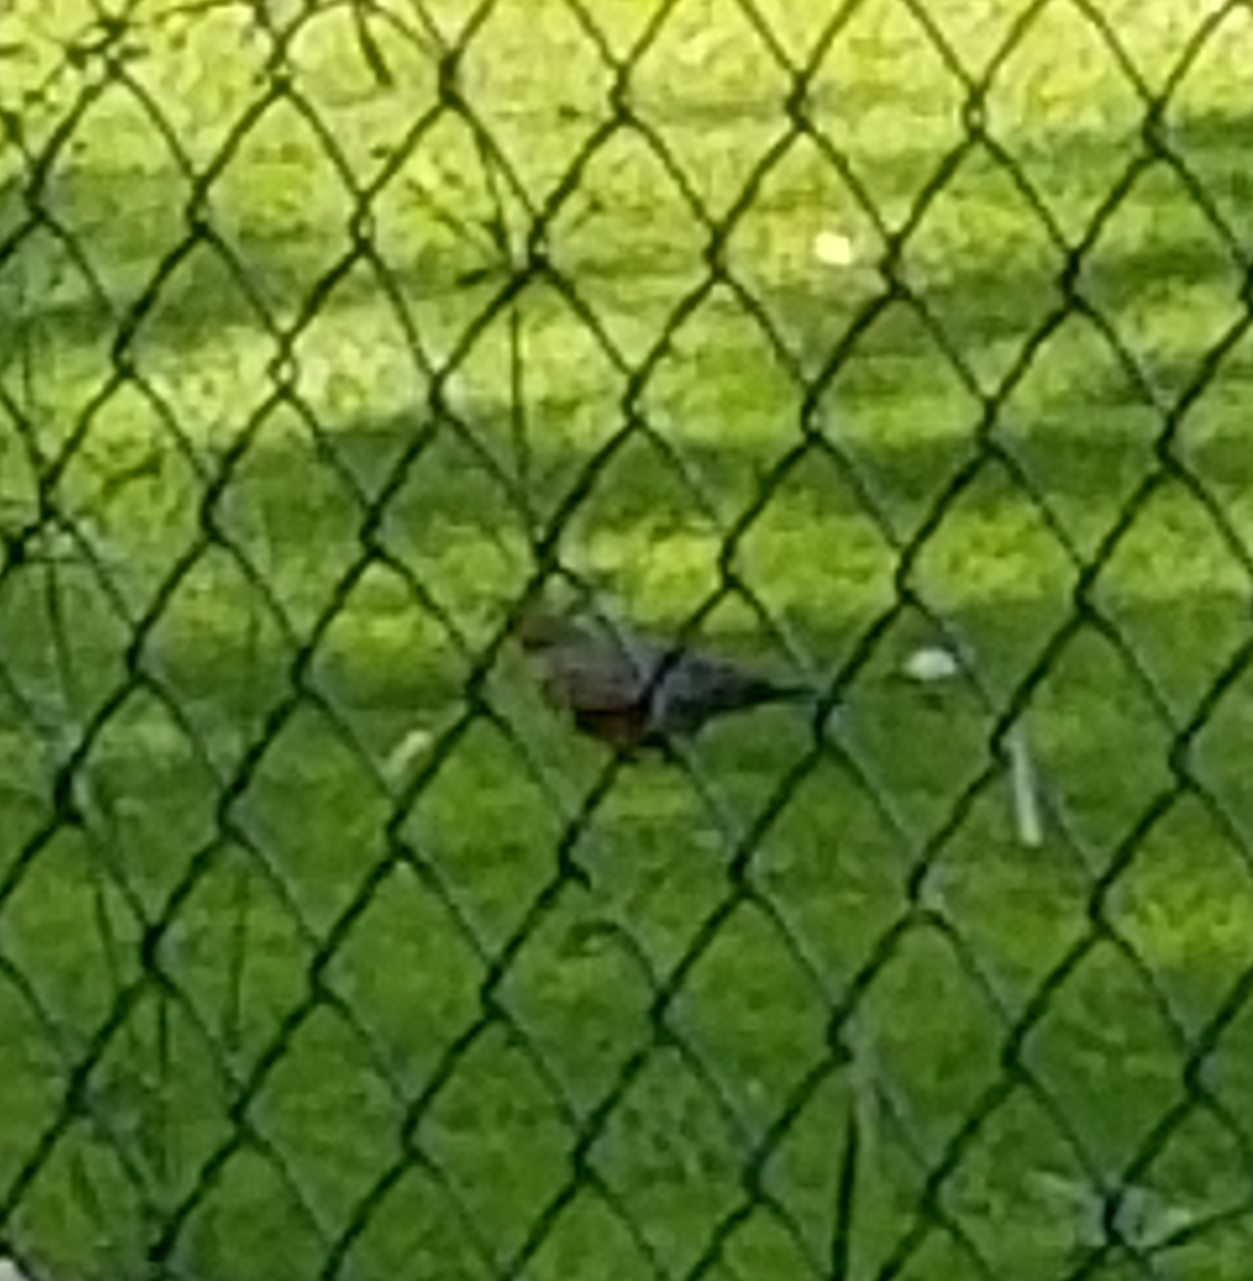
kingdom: Animalia
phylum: Chordata
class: Aves
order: Passeriformes
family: Turdidae
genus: Turdus
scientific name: Turdus migratorius
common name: American robin
